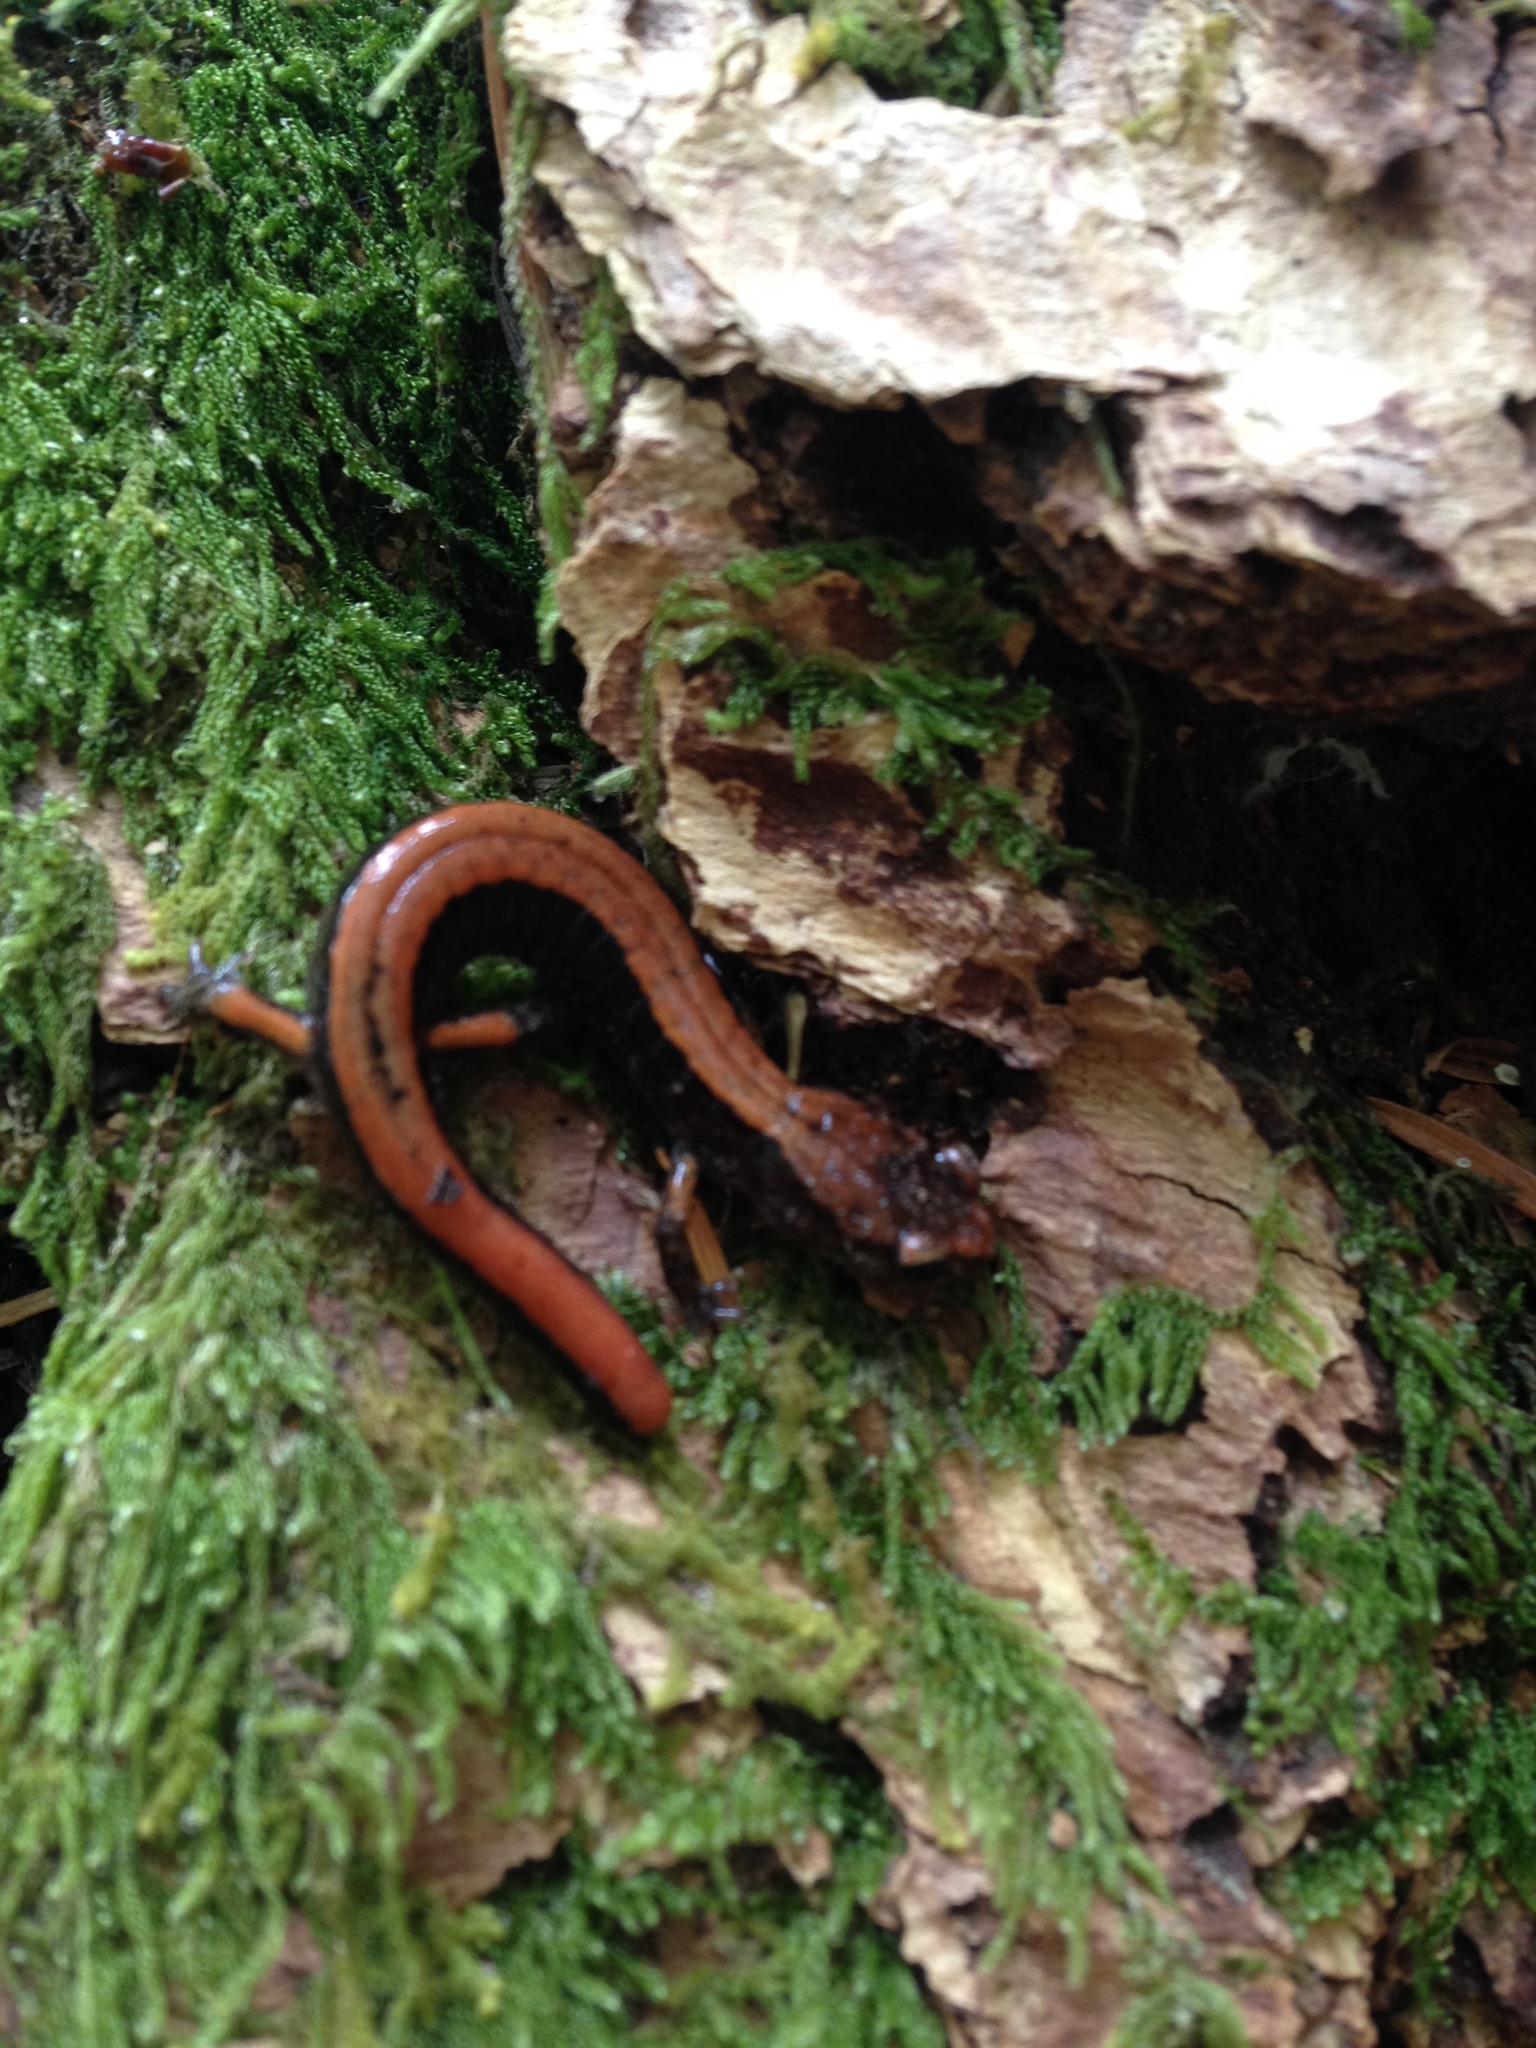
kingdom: Animalia
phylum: Chordata
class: Amphibia
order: Caudata
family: Plethodontidae
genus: Plethodon
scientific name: Plethodon vehiculum
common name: Western red-backed salamander
